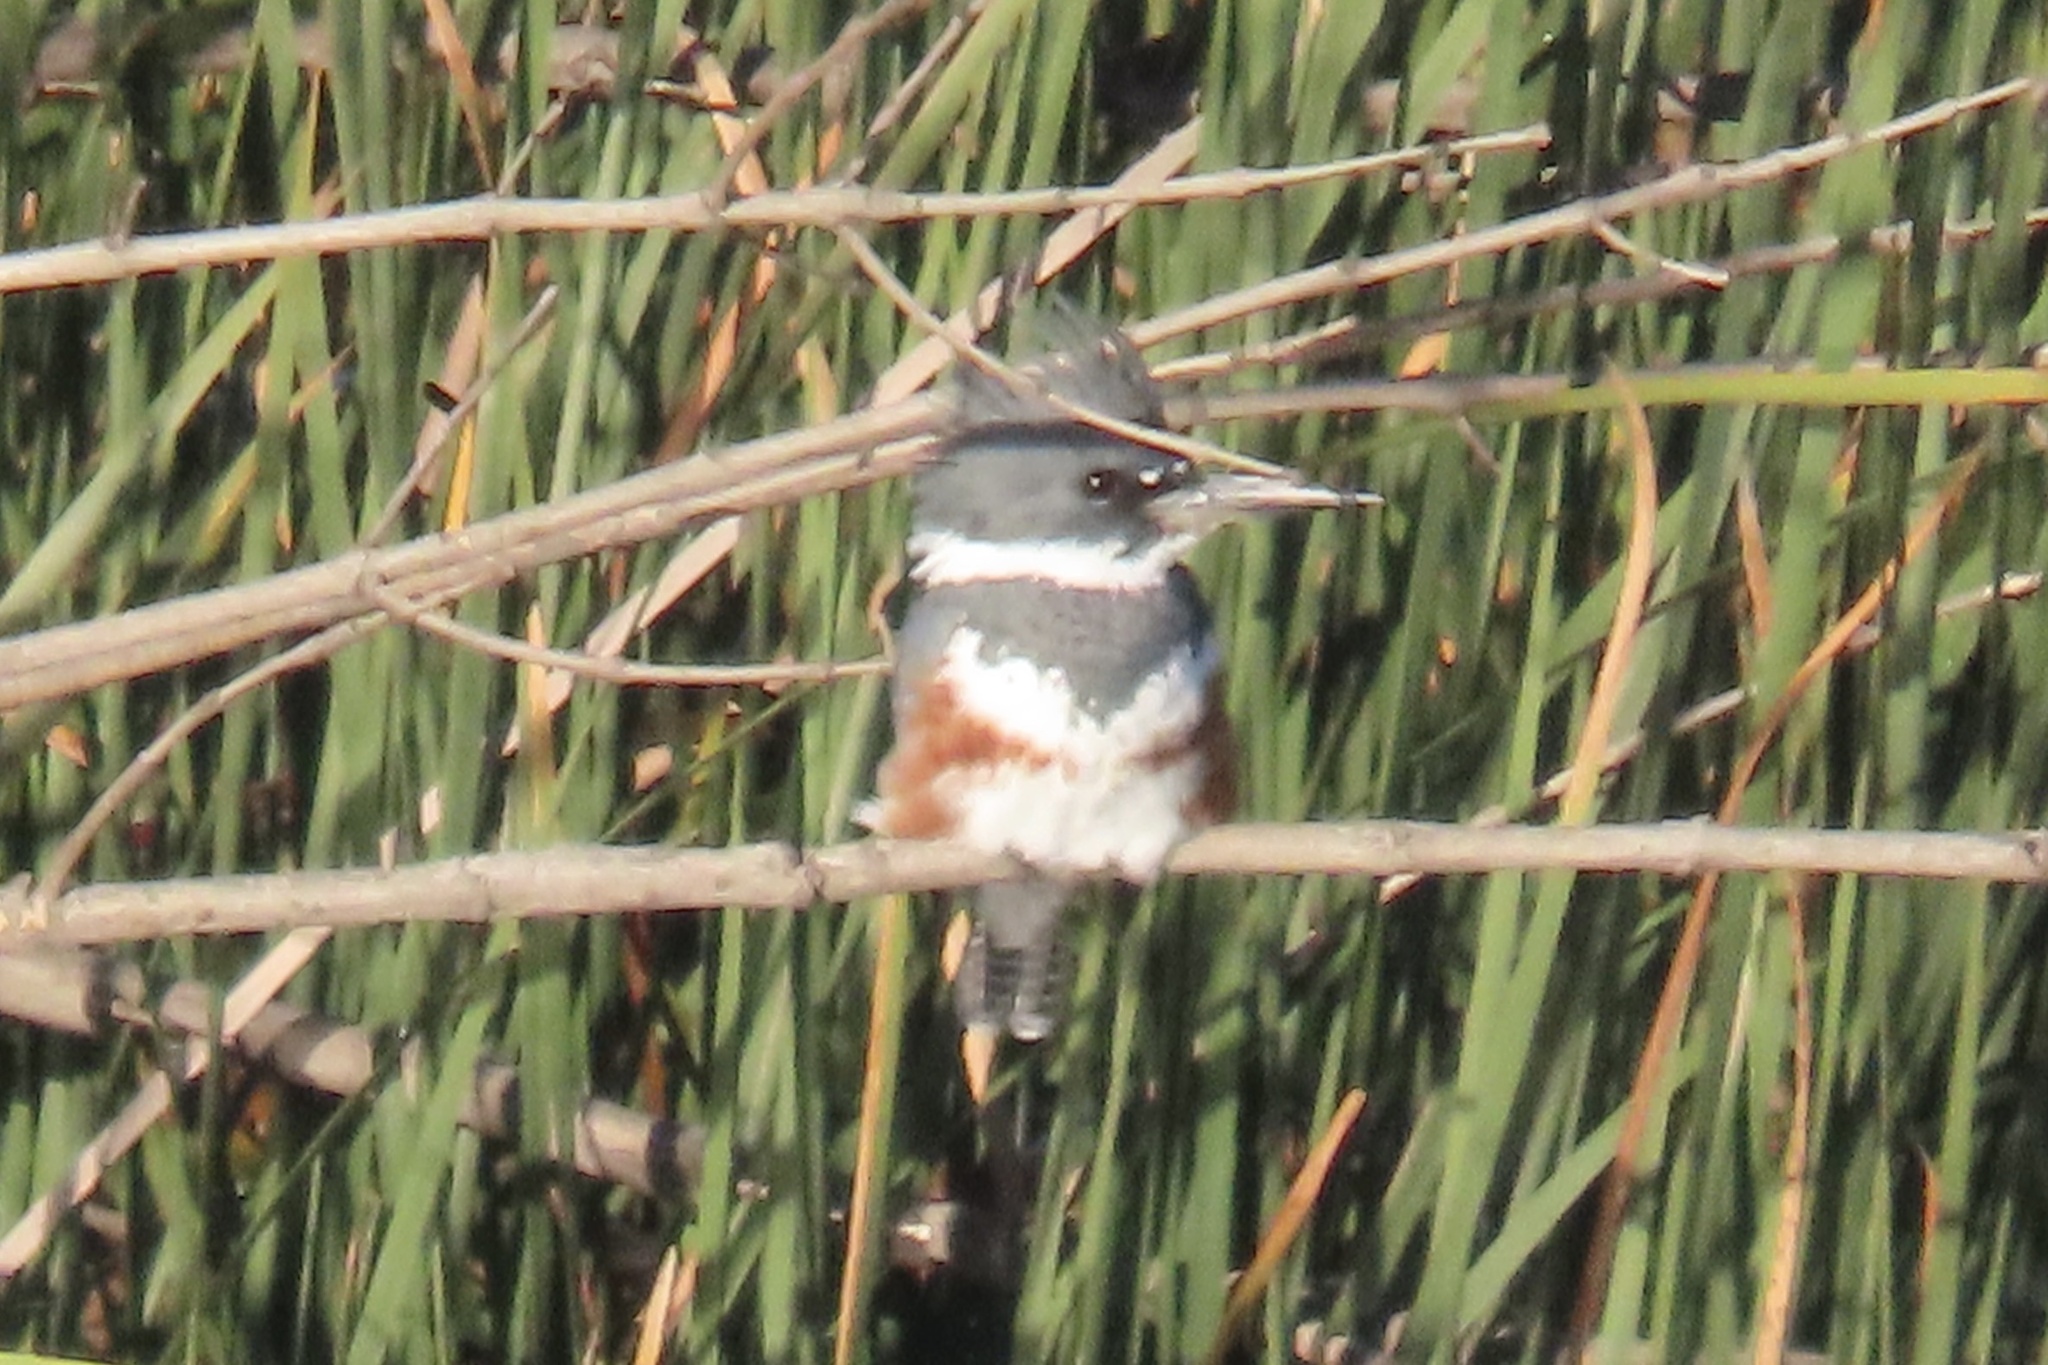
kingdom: Animalia
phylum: Chordata
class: Aves
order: Coraciiformes
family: Alcedinidae
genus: Megaceryle
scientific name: Megaceryle alcyon
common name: Belted kingfisher
